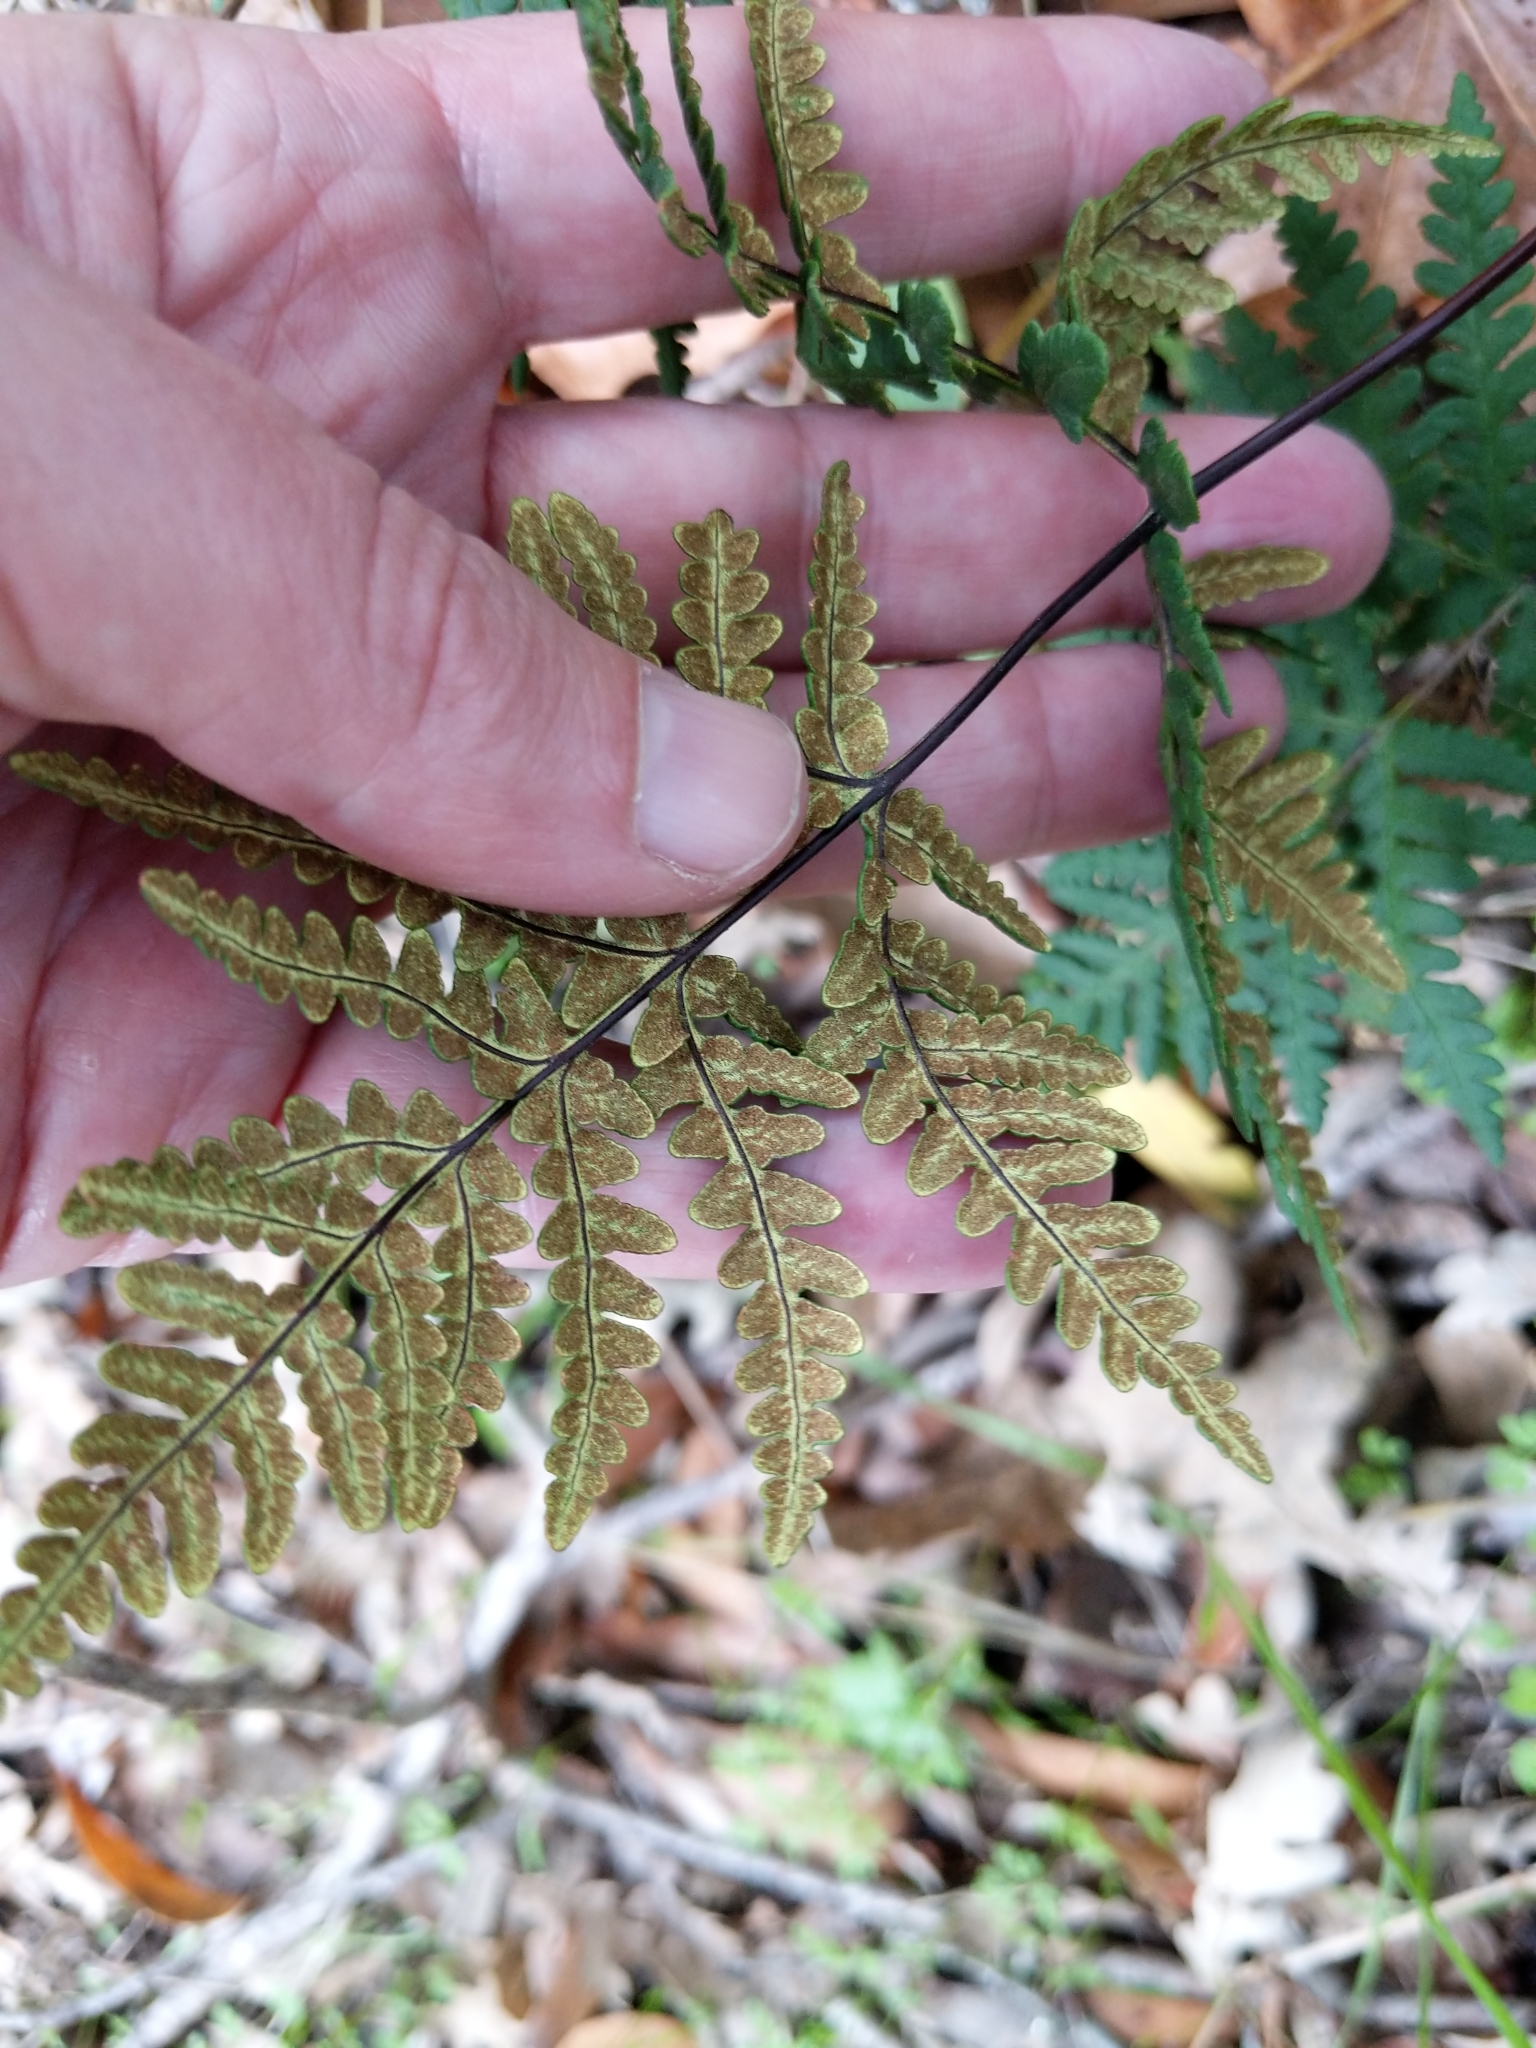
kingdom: Plantae
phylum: Tracheophyta
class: Polypodiopsida
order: Polypodiales
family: Pteridaceae
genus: Pentagramma
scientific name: Pentagramma triangularis
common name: Gold fern
